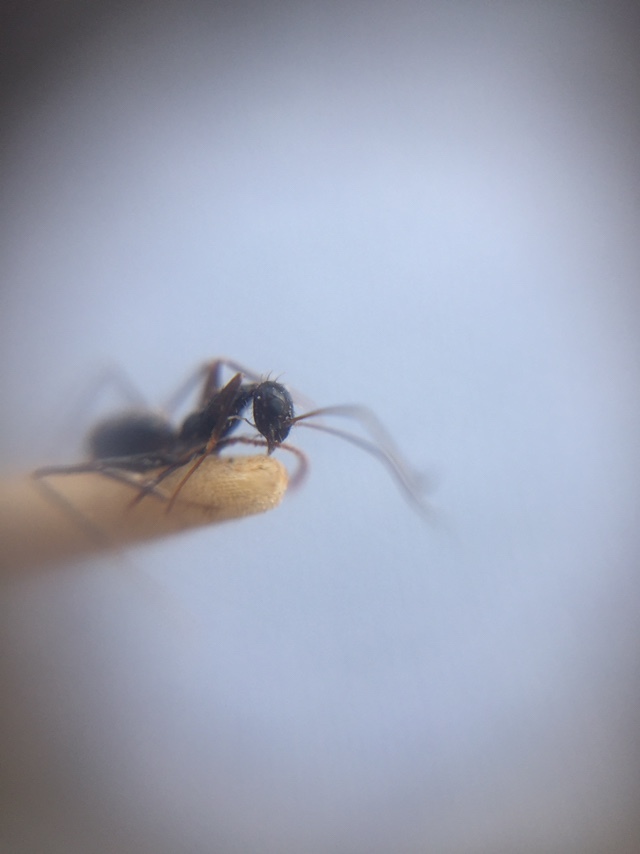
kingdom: Animalia
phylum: Arthropoda
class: Insecta
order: Hymenoptera
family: Formicidae
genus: Paratrechina
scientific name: Paratrechina longicornis
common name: Longhorned crazy ant
